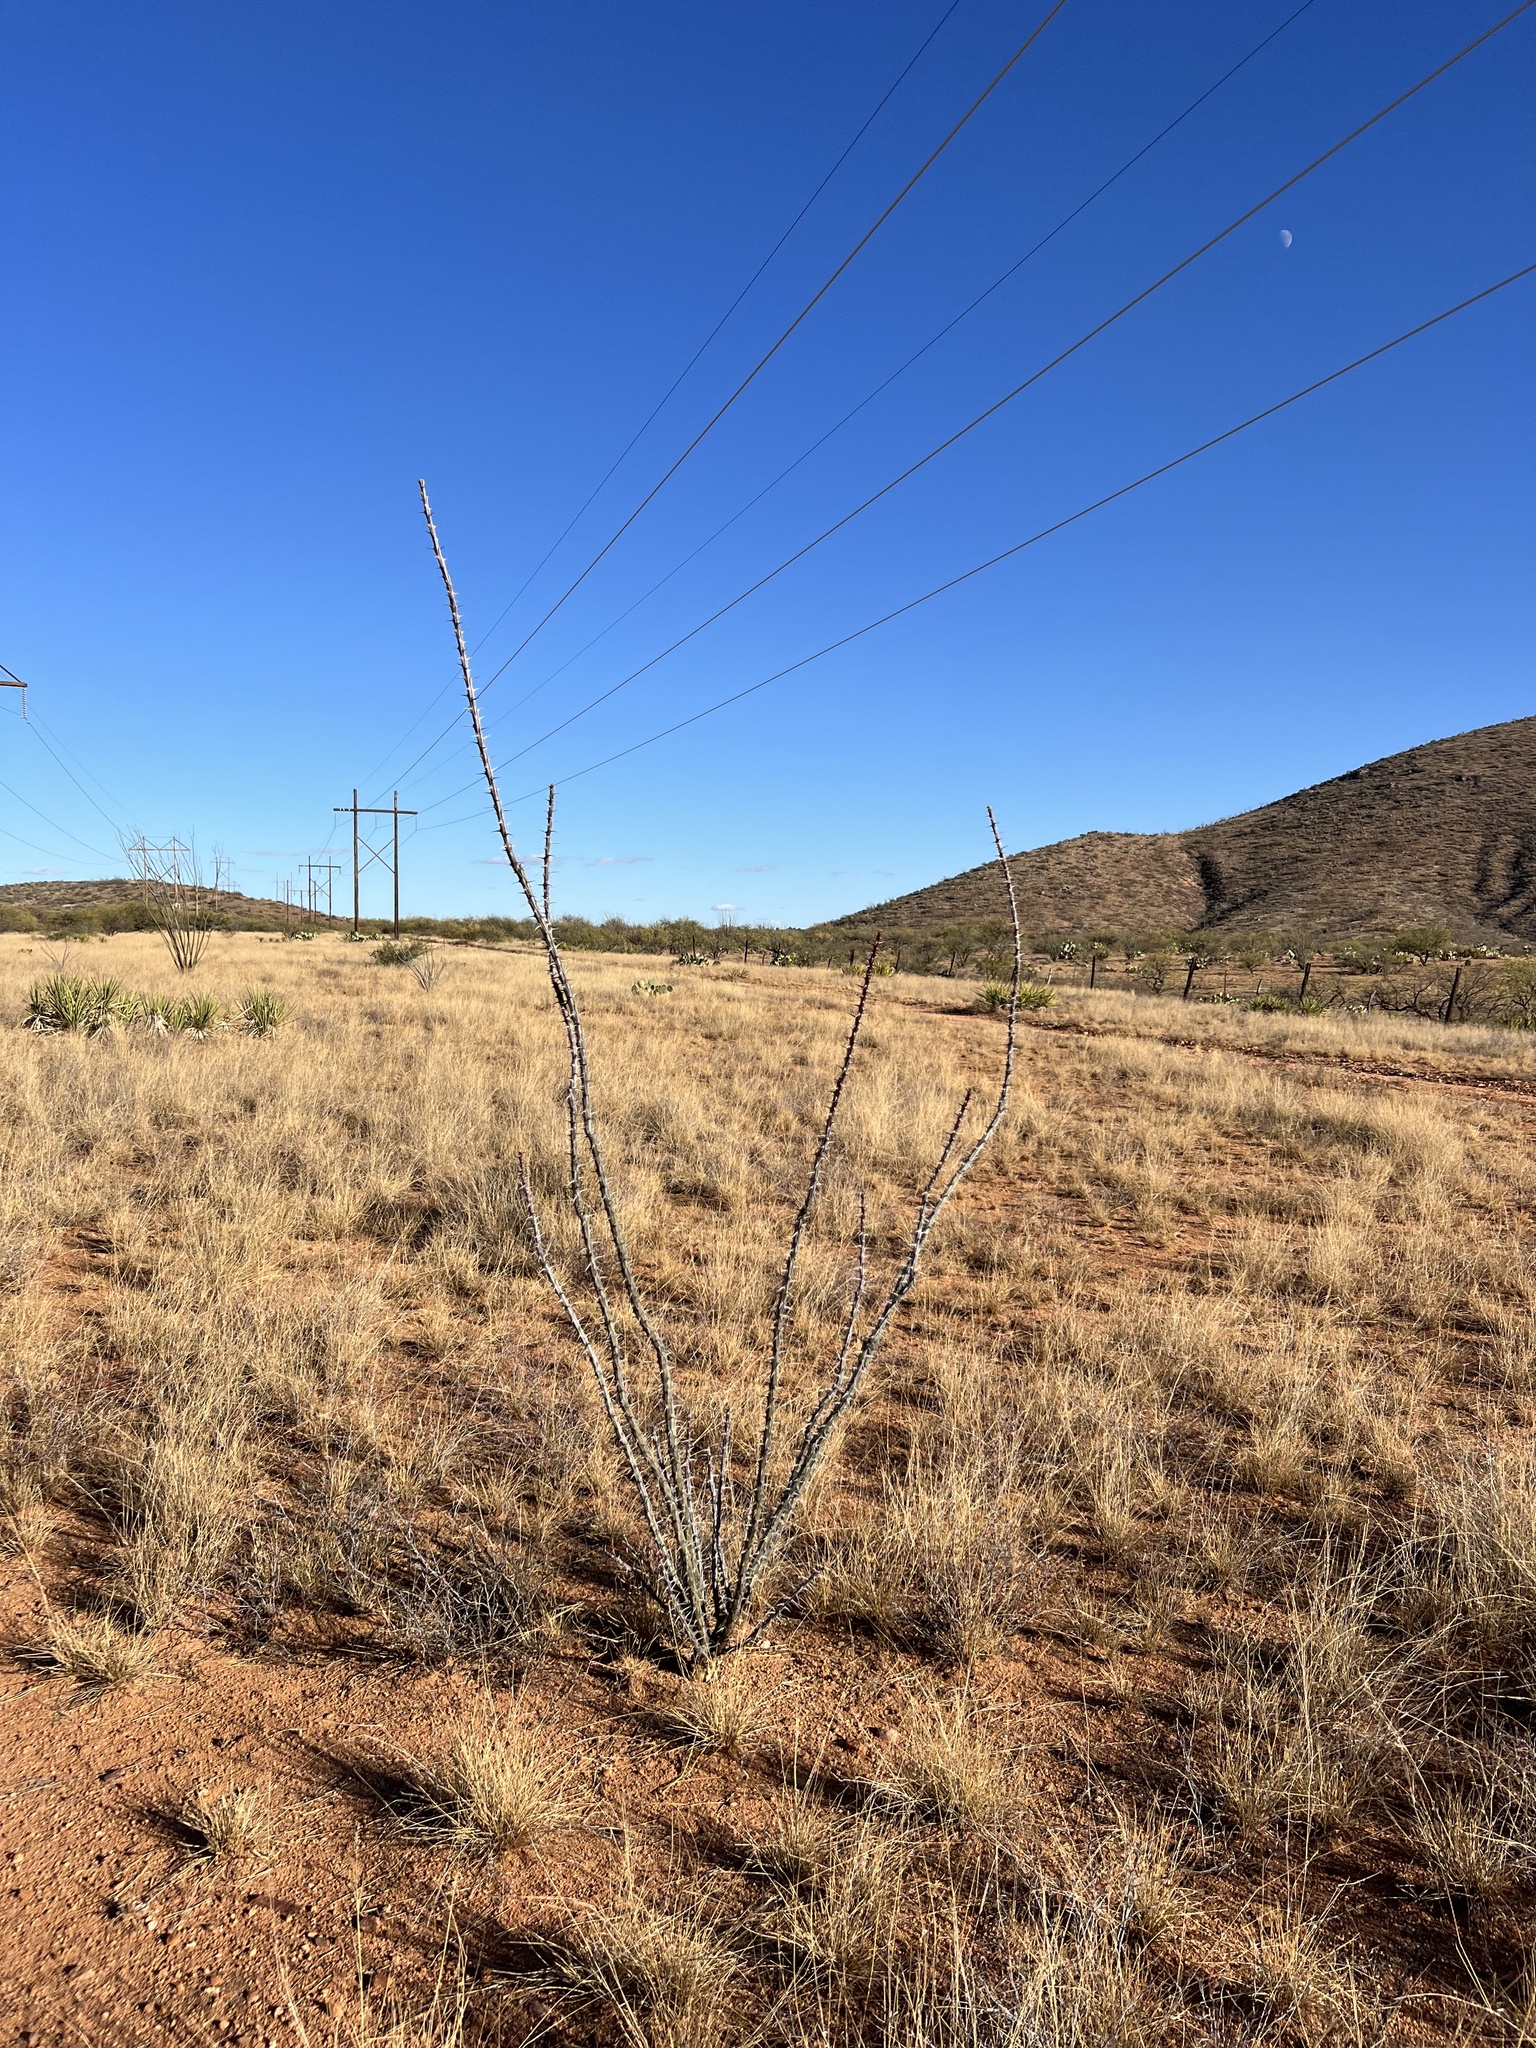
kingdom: Plantae
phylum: Tracheophyta
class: Magnoliopsida
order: Ericales
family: Fouquieriaceae
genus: Fouquieria
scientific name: Fouquieria splendens
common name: Vine-cactus
